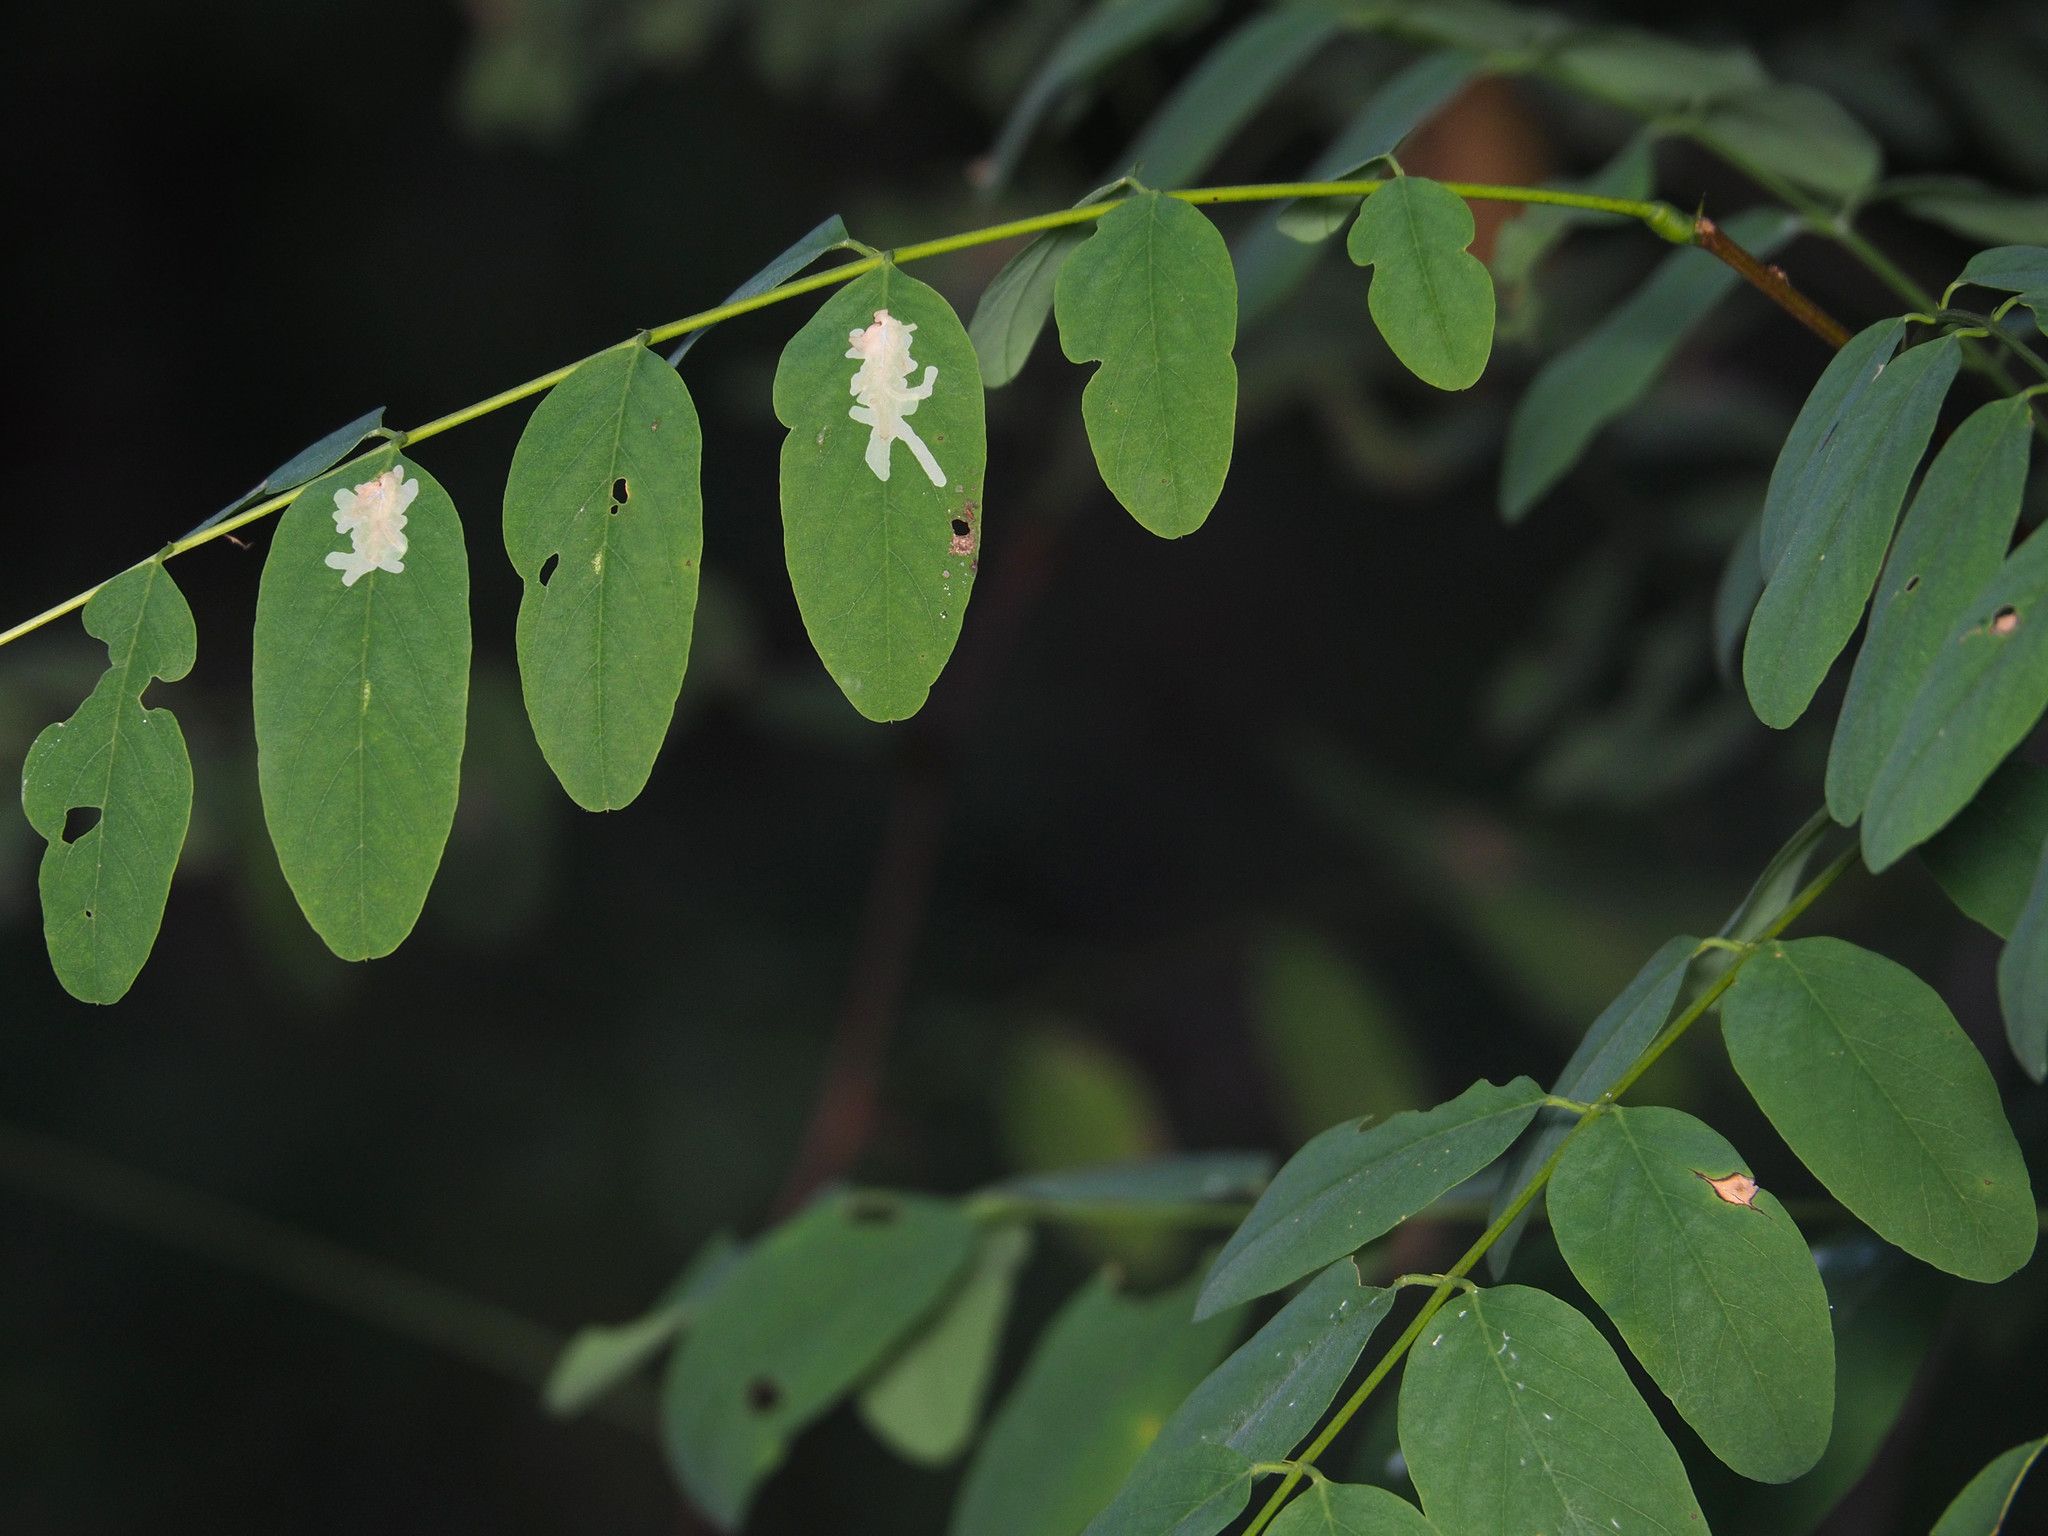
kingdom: Animalia
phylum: Arthropoda
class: Insecta
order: Lepidoptera
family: Gracillariidae
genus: Parectopa
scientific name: Parectopa robiniella
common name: Locust digitate leafminer
